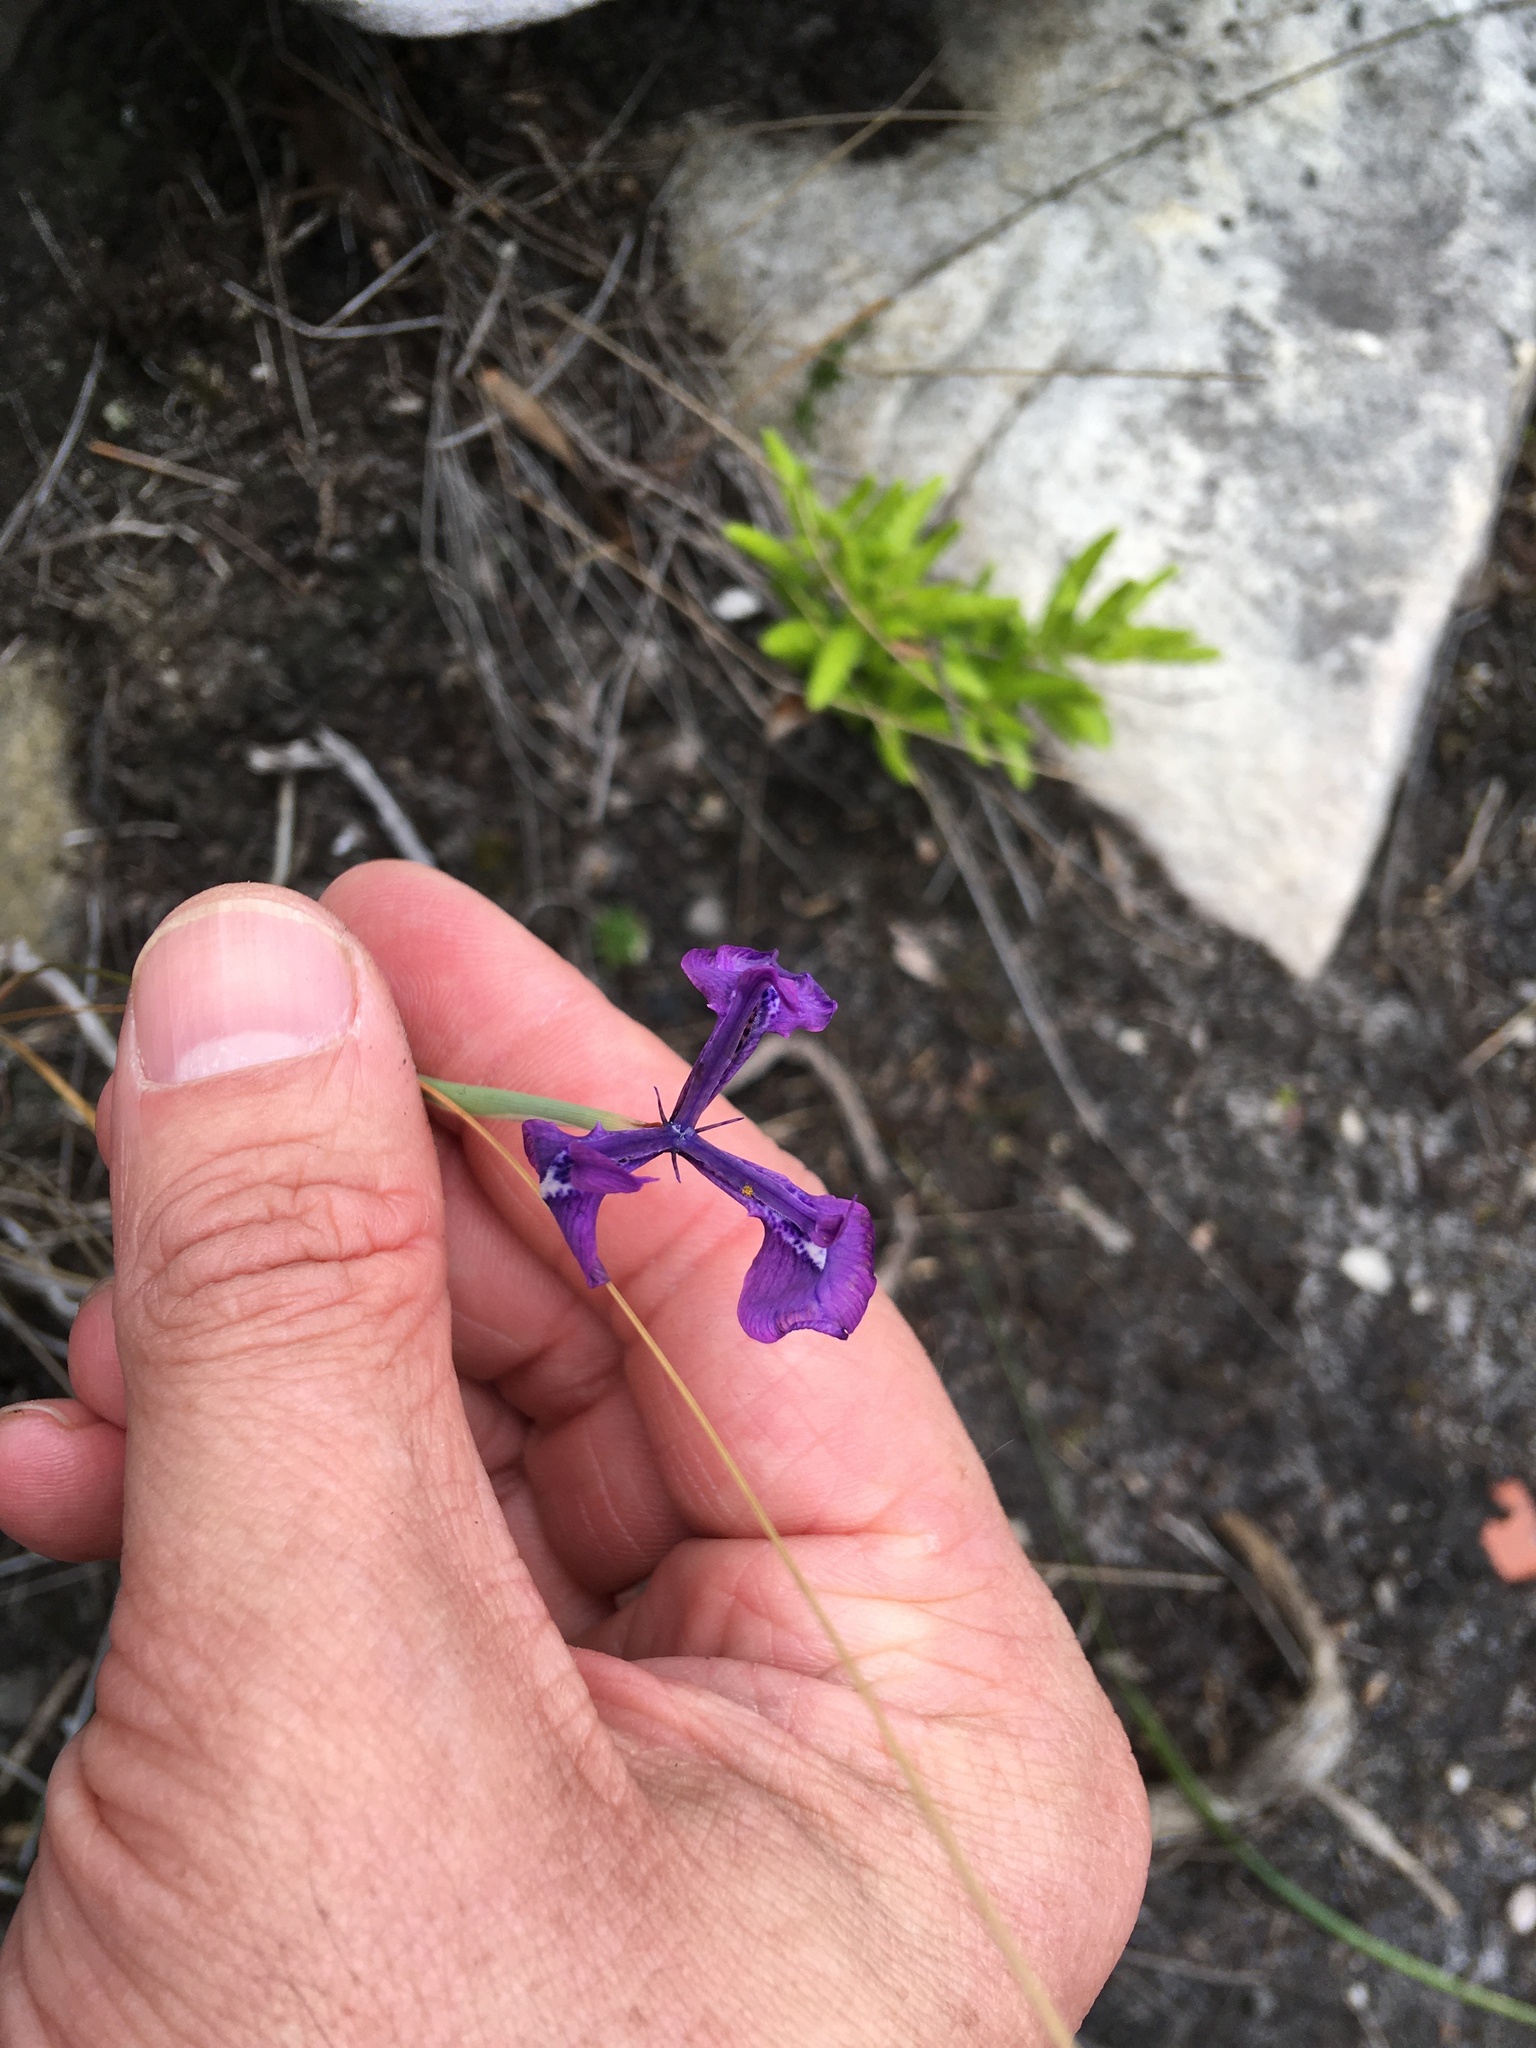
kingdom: Plantae
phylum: Tracheophyta
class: Liliopsida
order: Asparagales
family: Iridaceae
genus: Moraea
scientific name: Moraea tripetala
